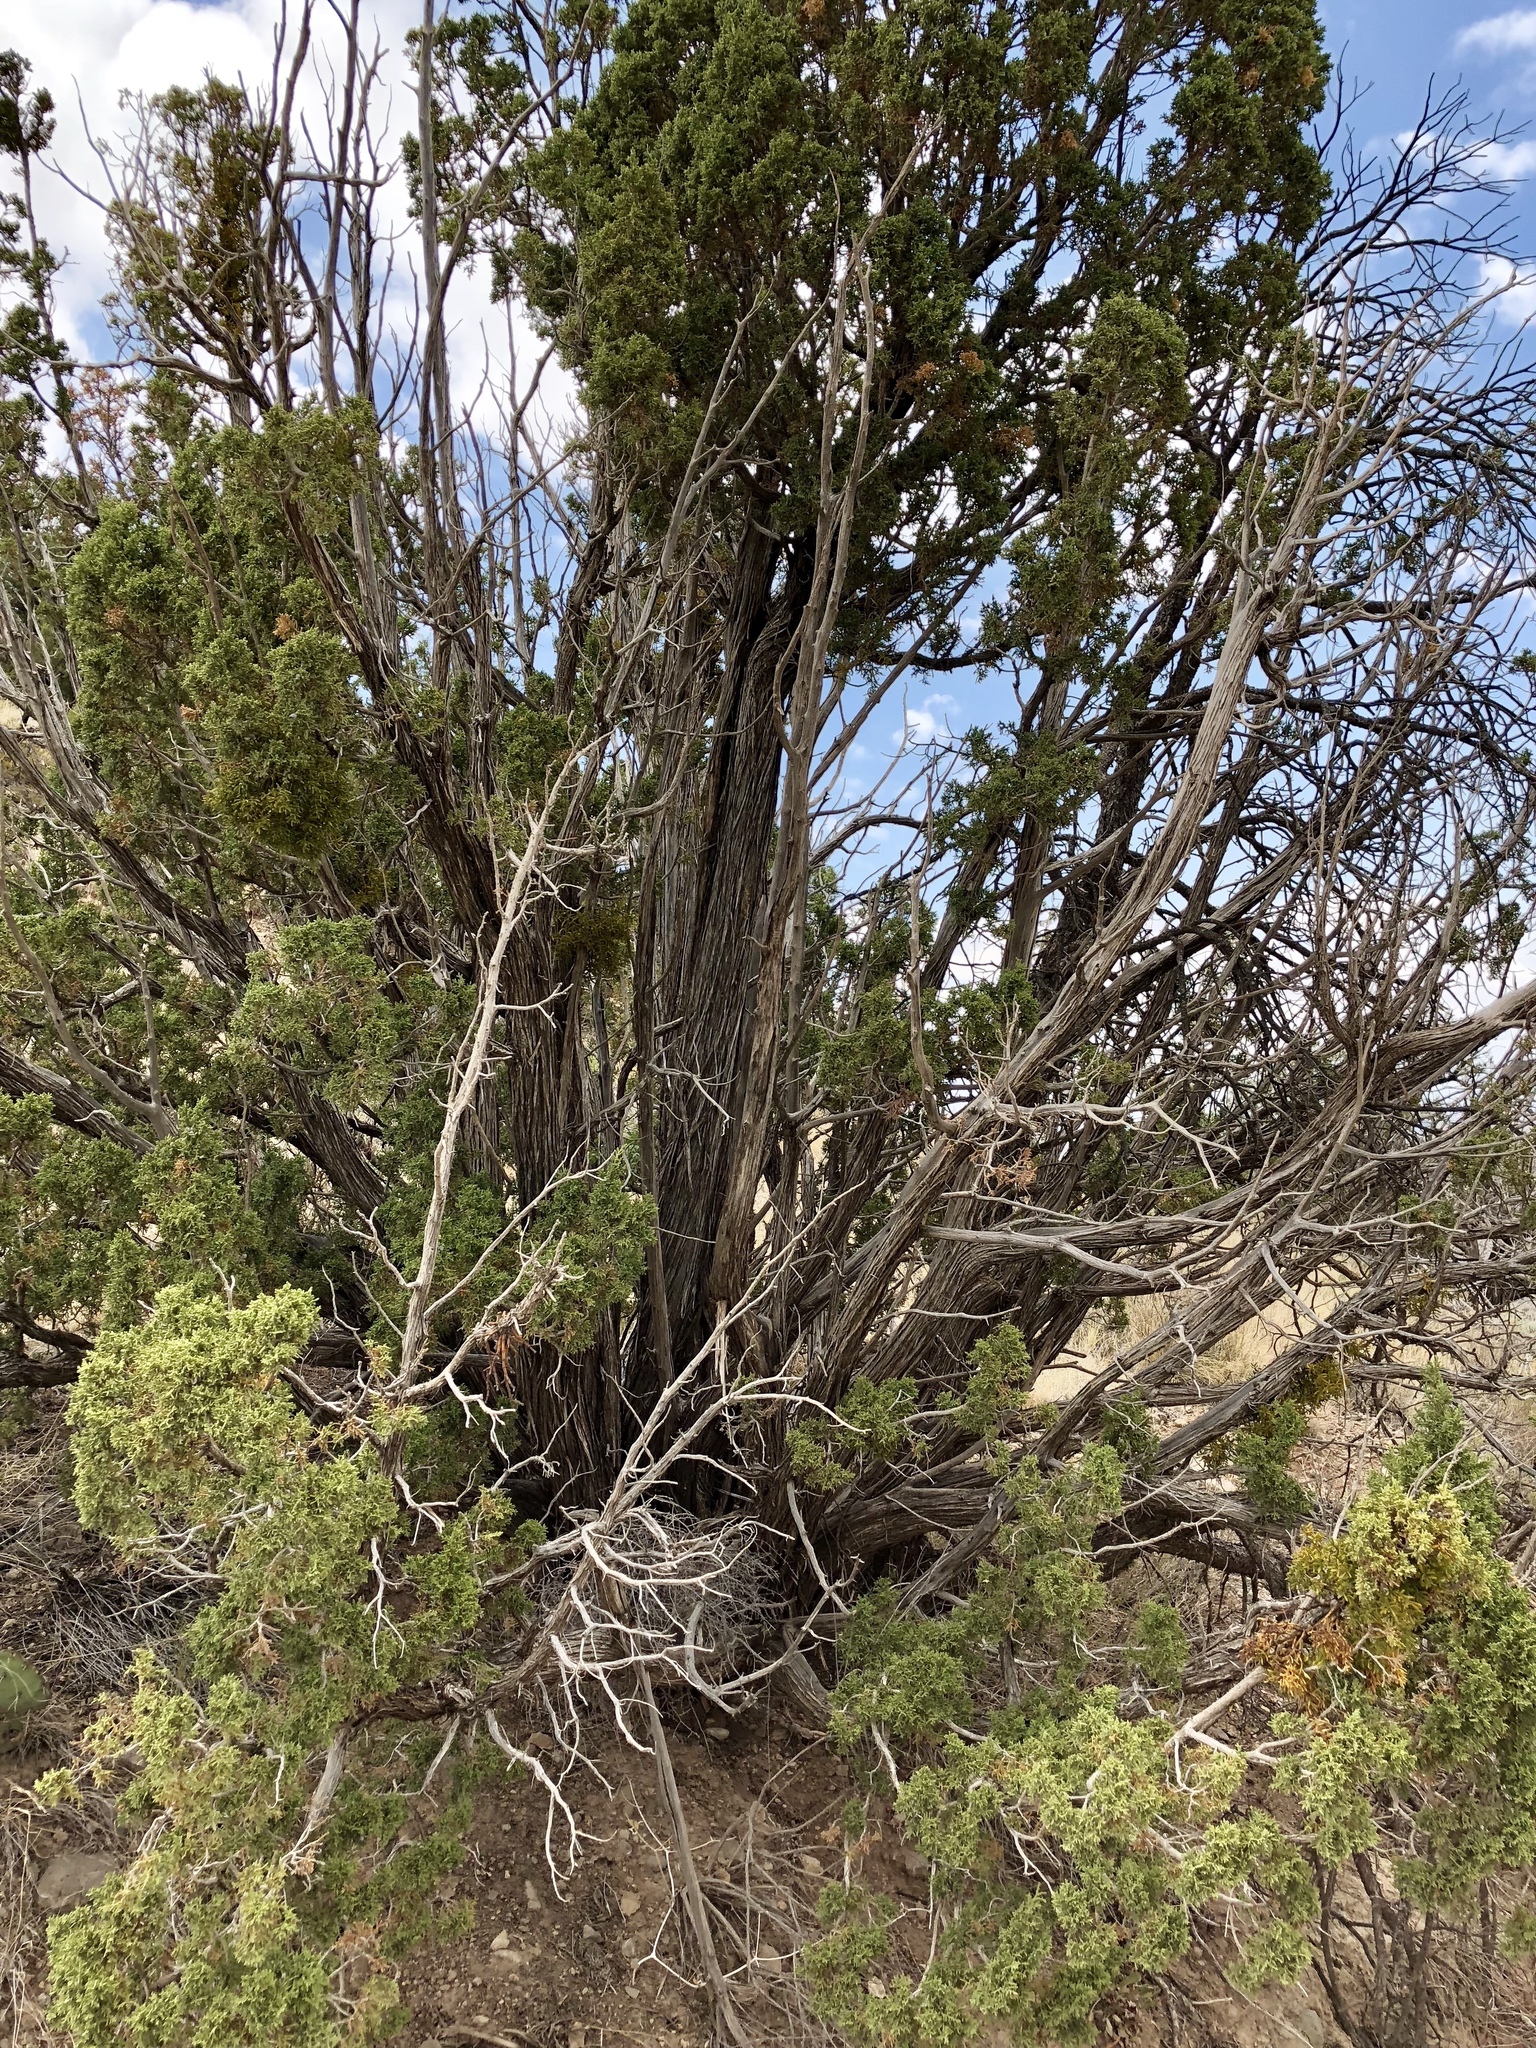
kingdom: Plantae
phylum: Tracheophyta
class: Pinopsida
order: Pinales
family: Cupressaceae
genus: Juniperus
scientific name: Juniperus monosperma
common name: One-seed juniper
